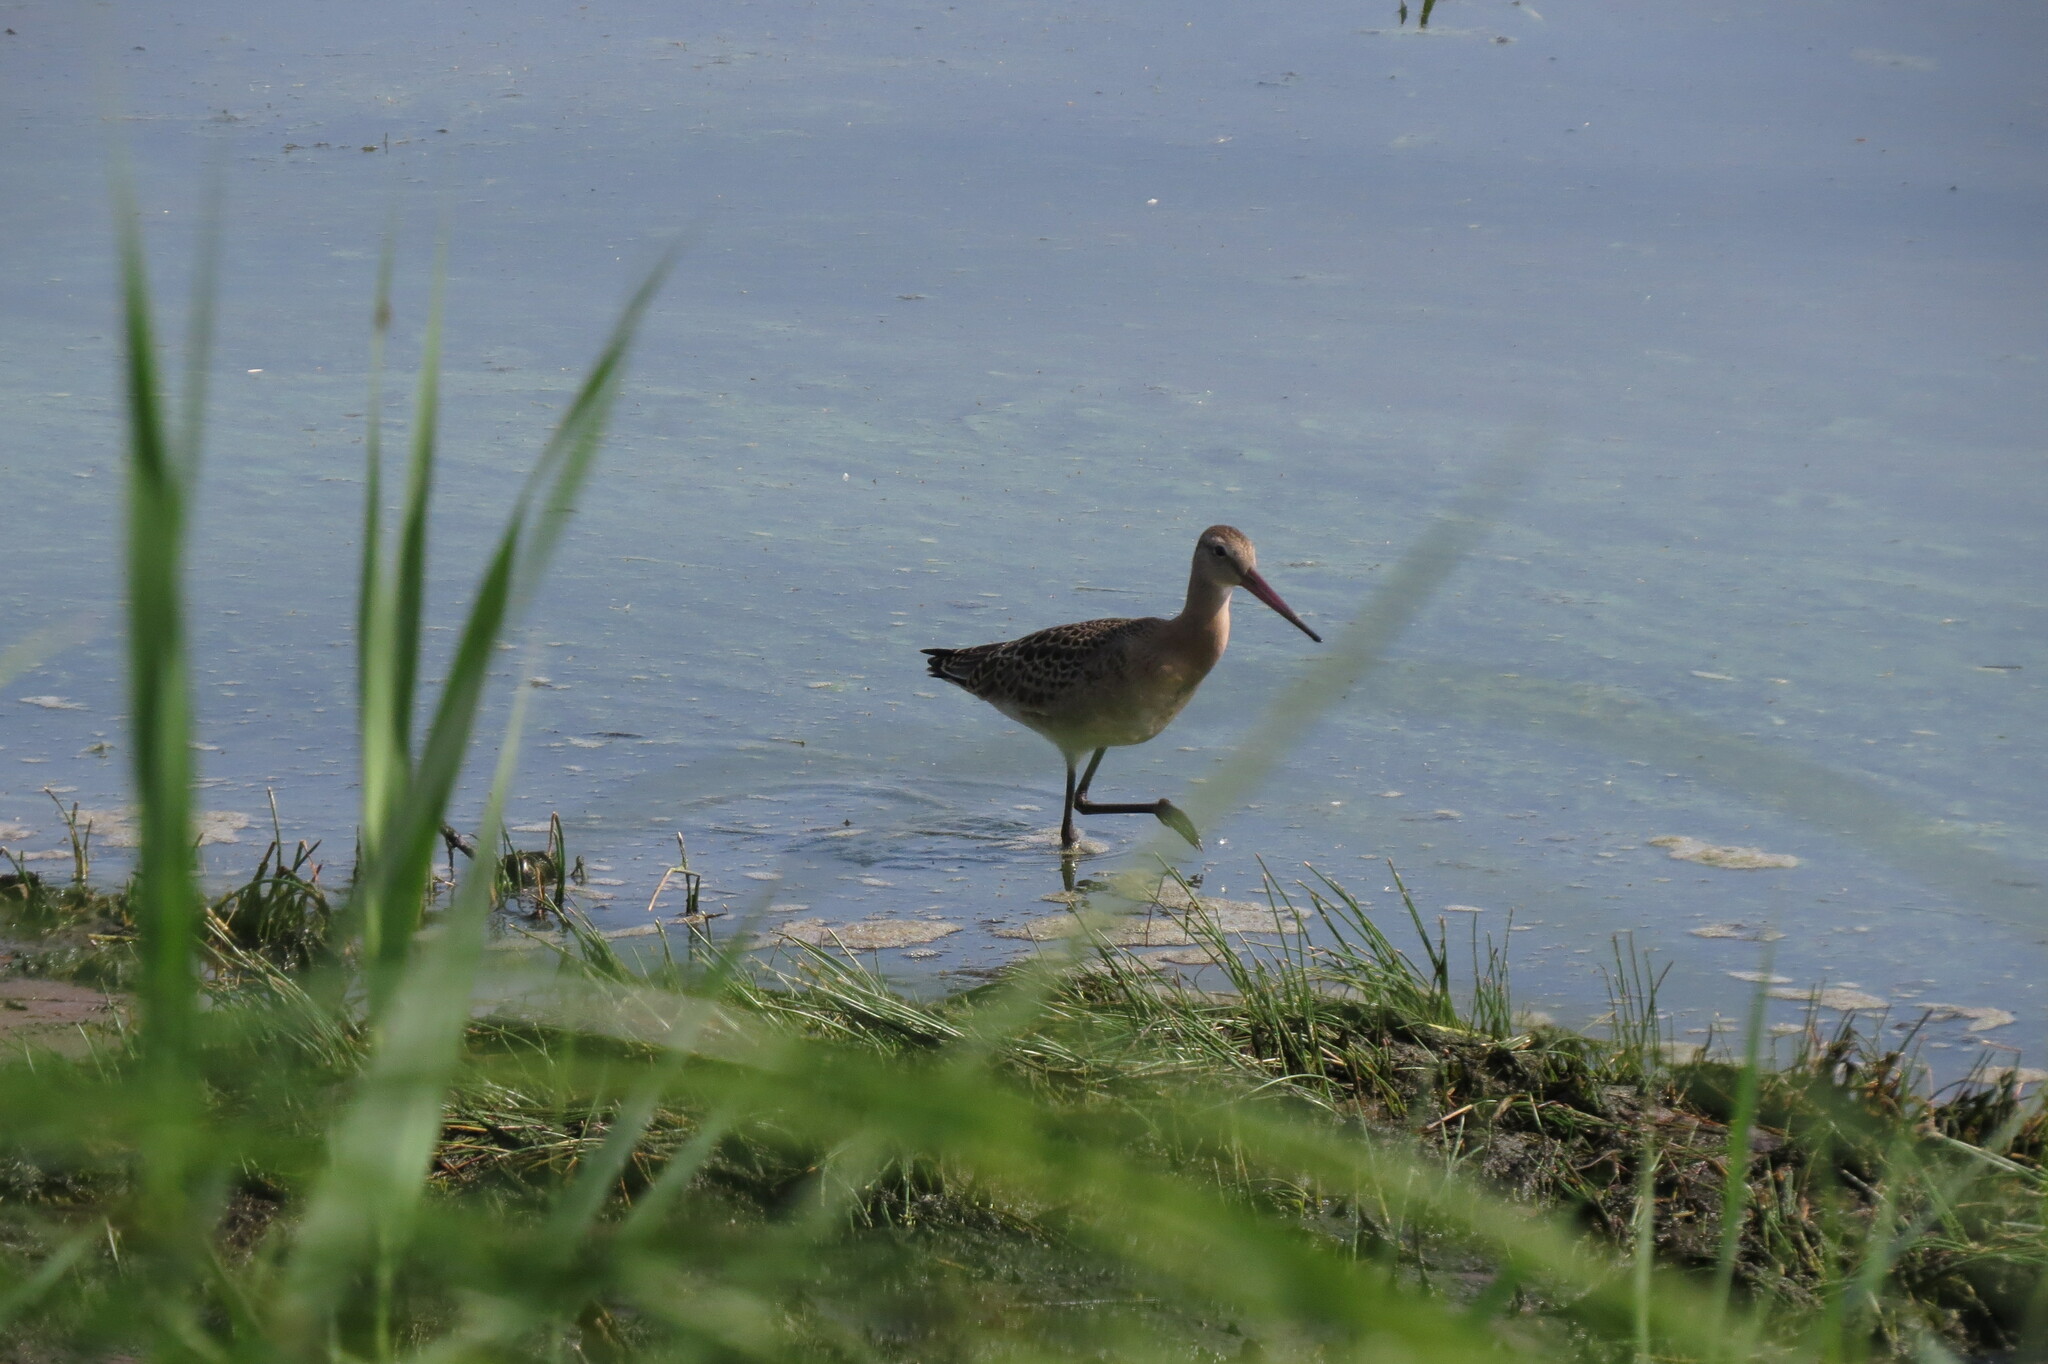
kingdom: Animalia
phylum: Chordata
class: Aves
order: Charadriiformes
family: Scolopacidae
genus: Limosa
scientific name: Limosa limosa
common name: Black-tailed godwit
